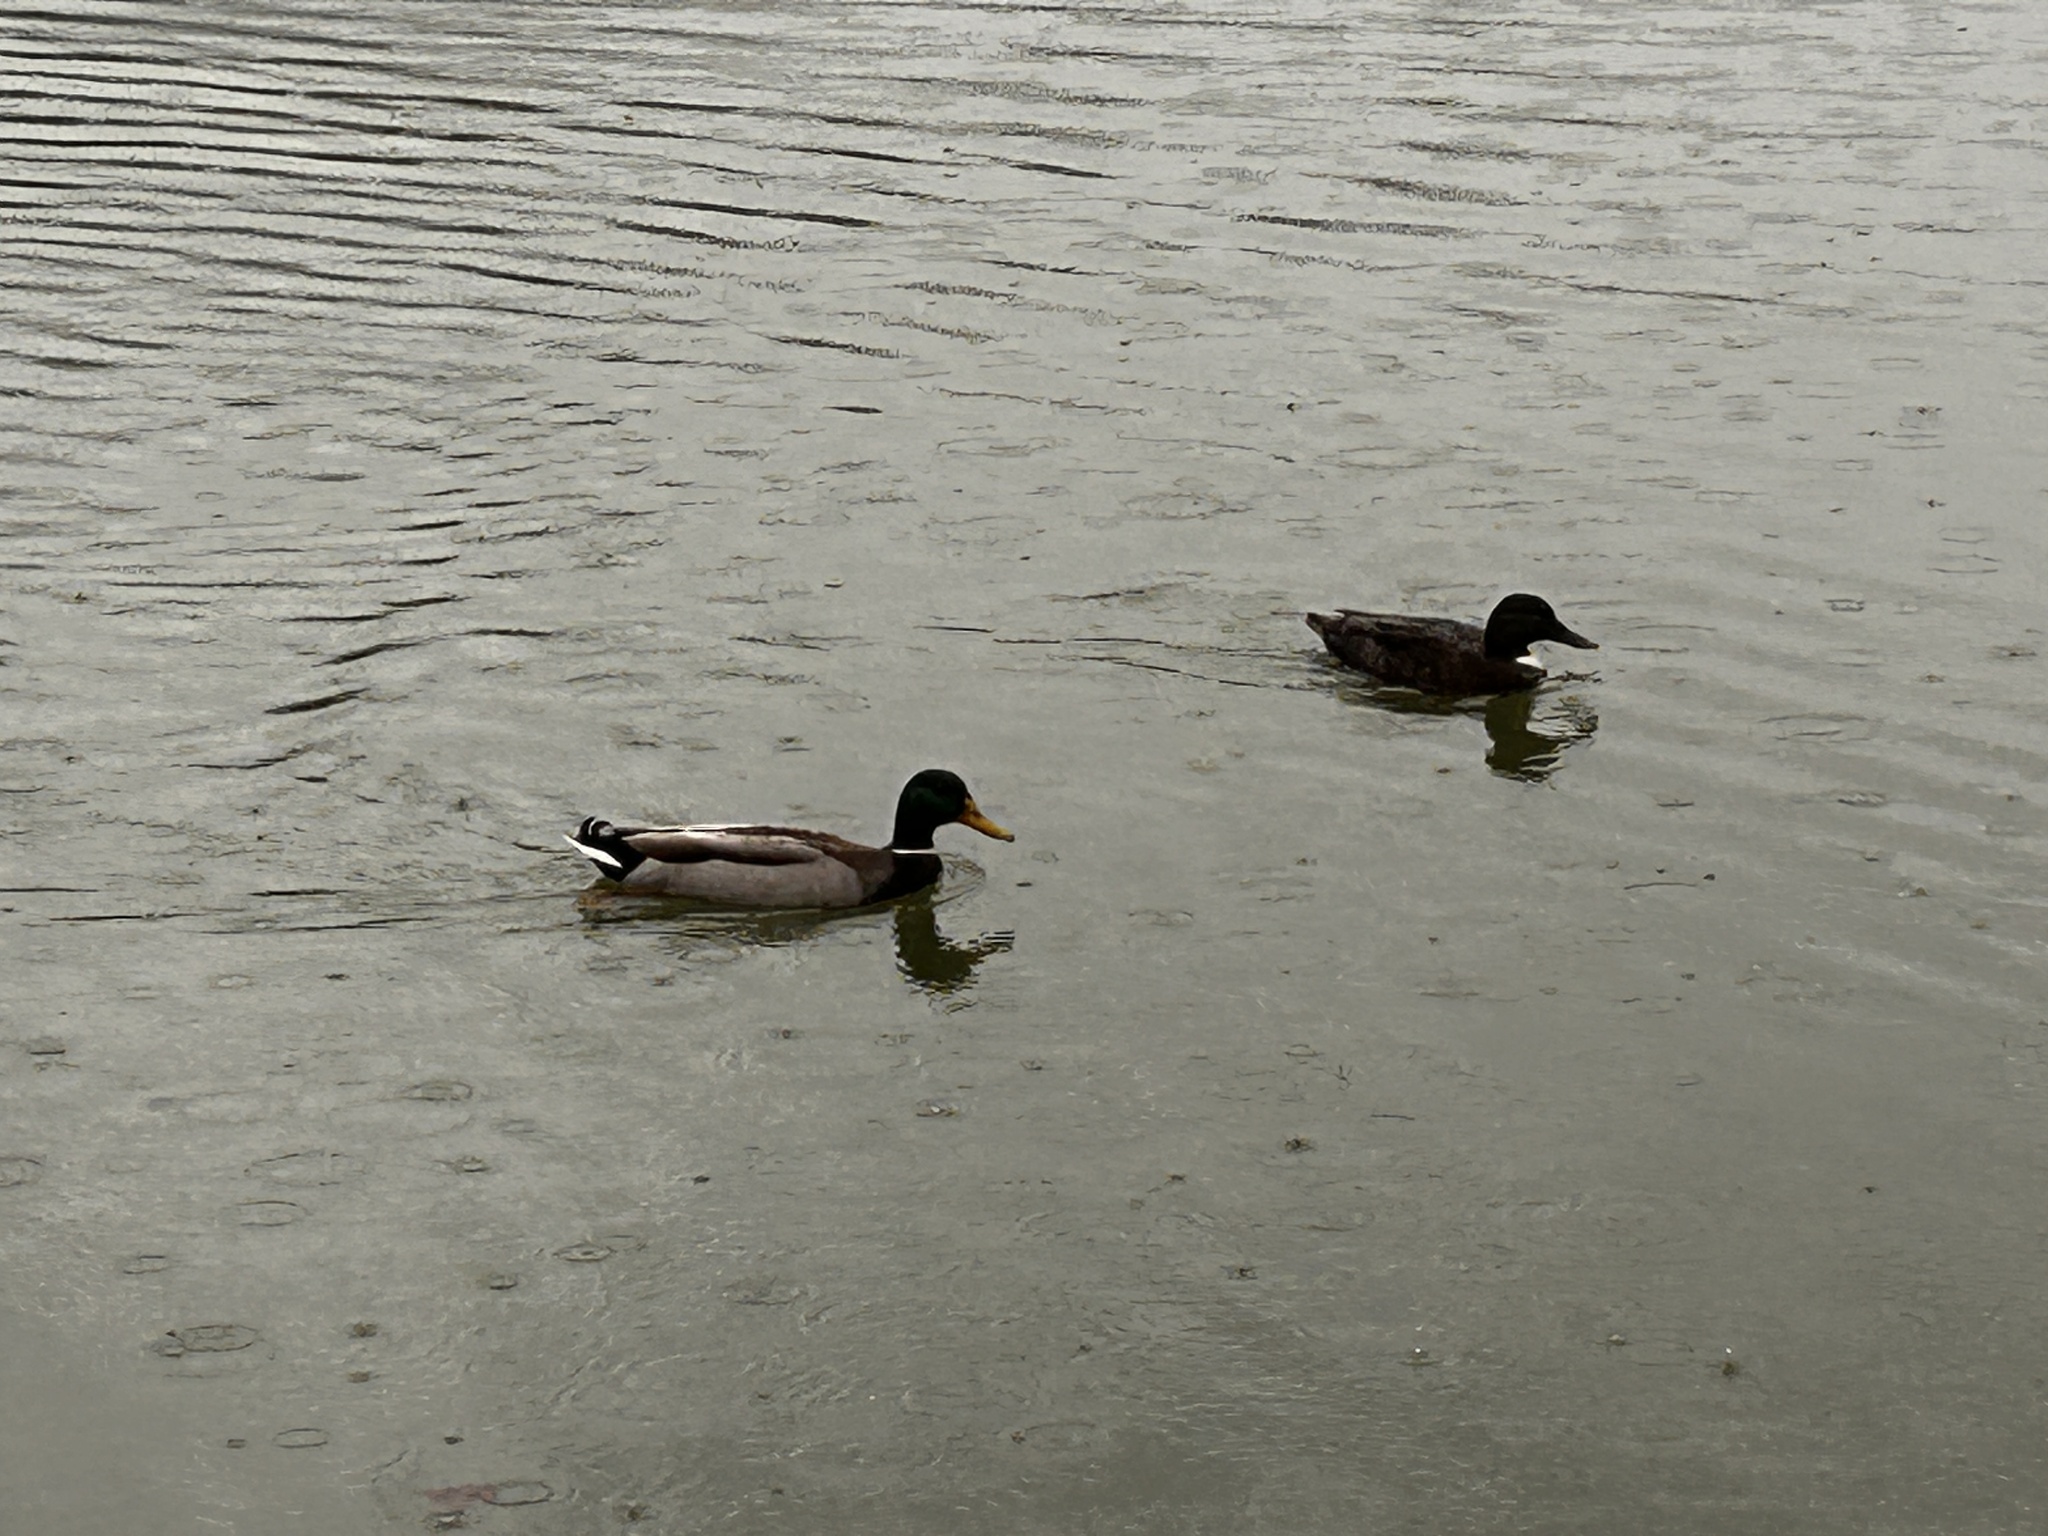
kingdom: Animalia
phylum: Chordata
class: Aves
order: Anseriformes
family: Anatidae
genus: Anas
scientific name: Anas platyrhynchos
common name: Mallard
